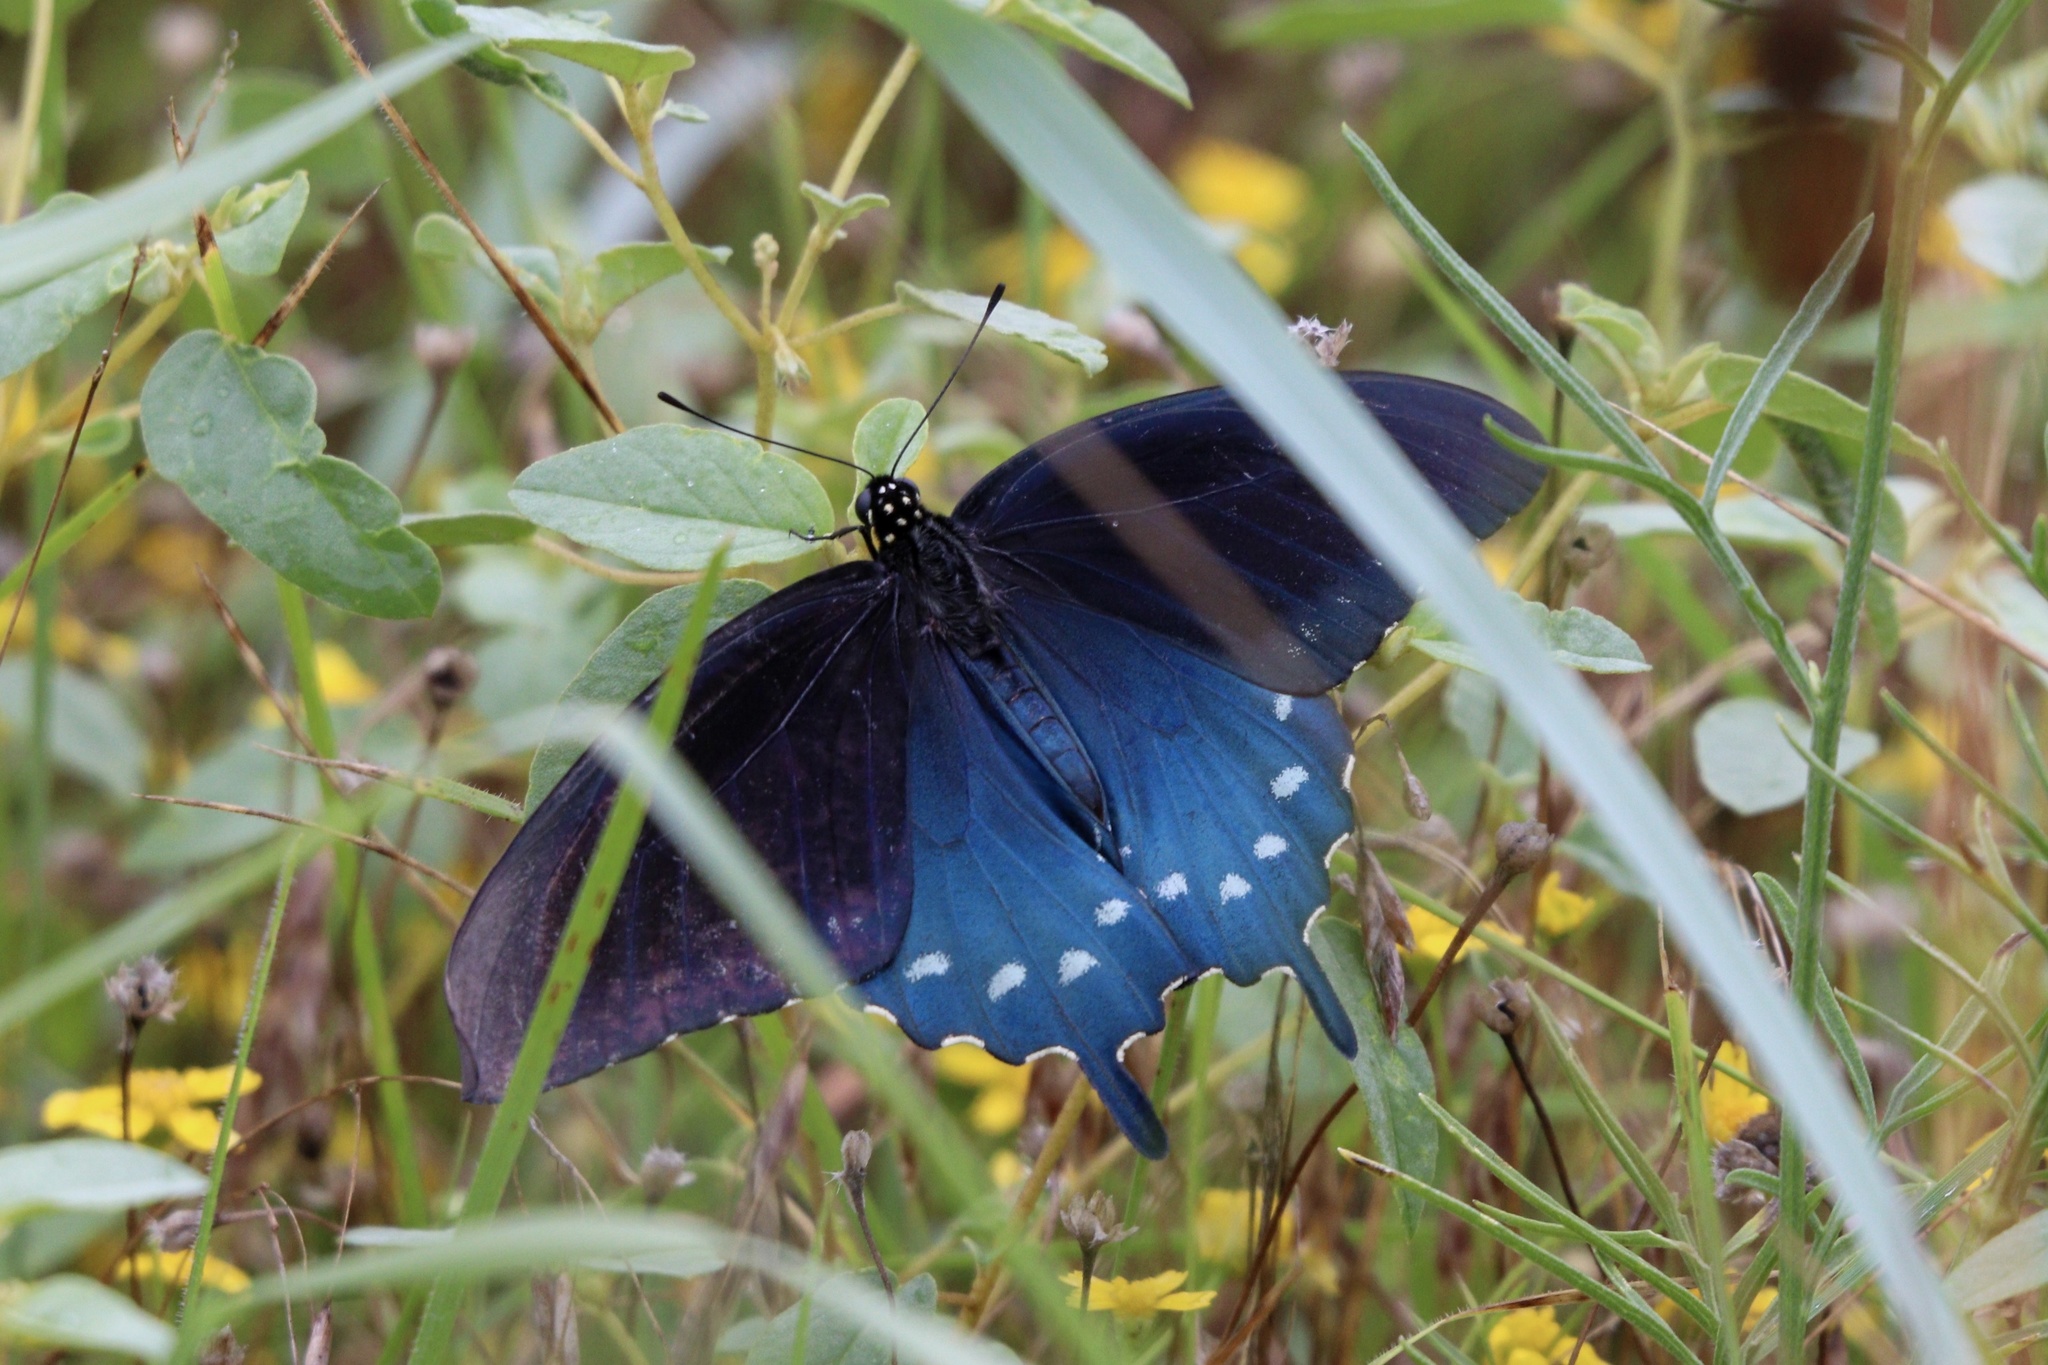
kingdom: Animalia
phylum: Arthropoda
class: Insecta
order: Lepidoptera
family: Papilionidae
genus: Battus
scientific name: Battus philenor
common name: Pipevine swallowtail
